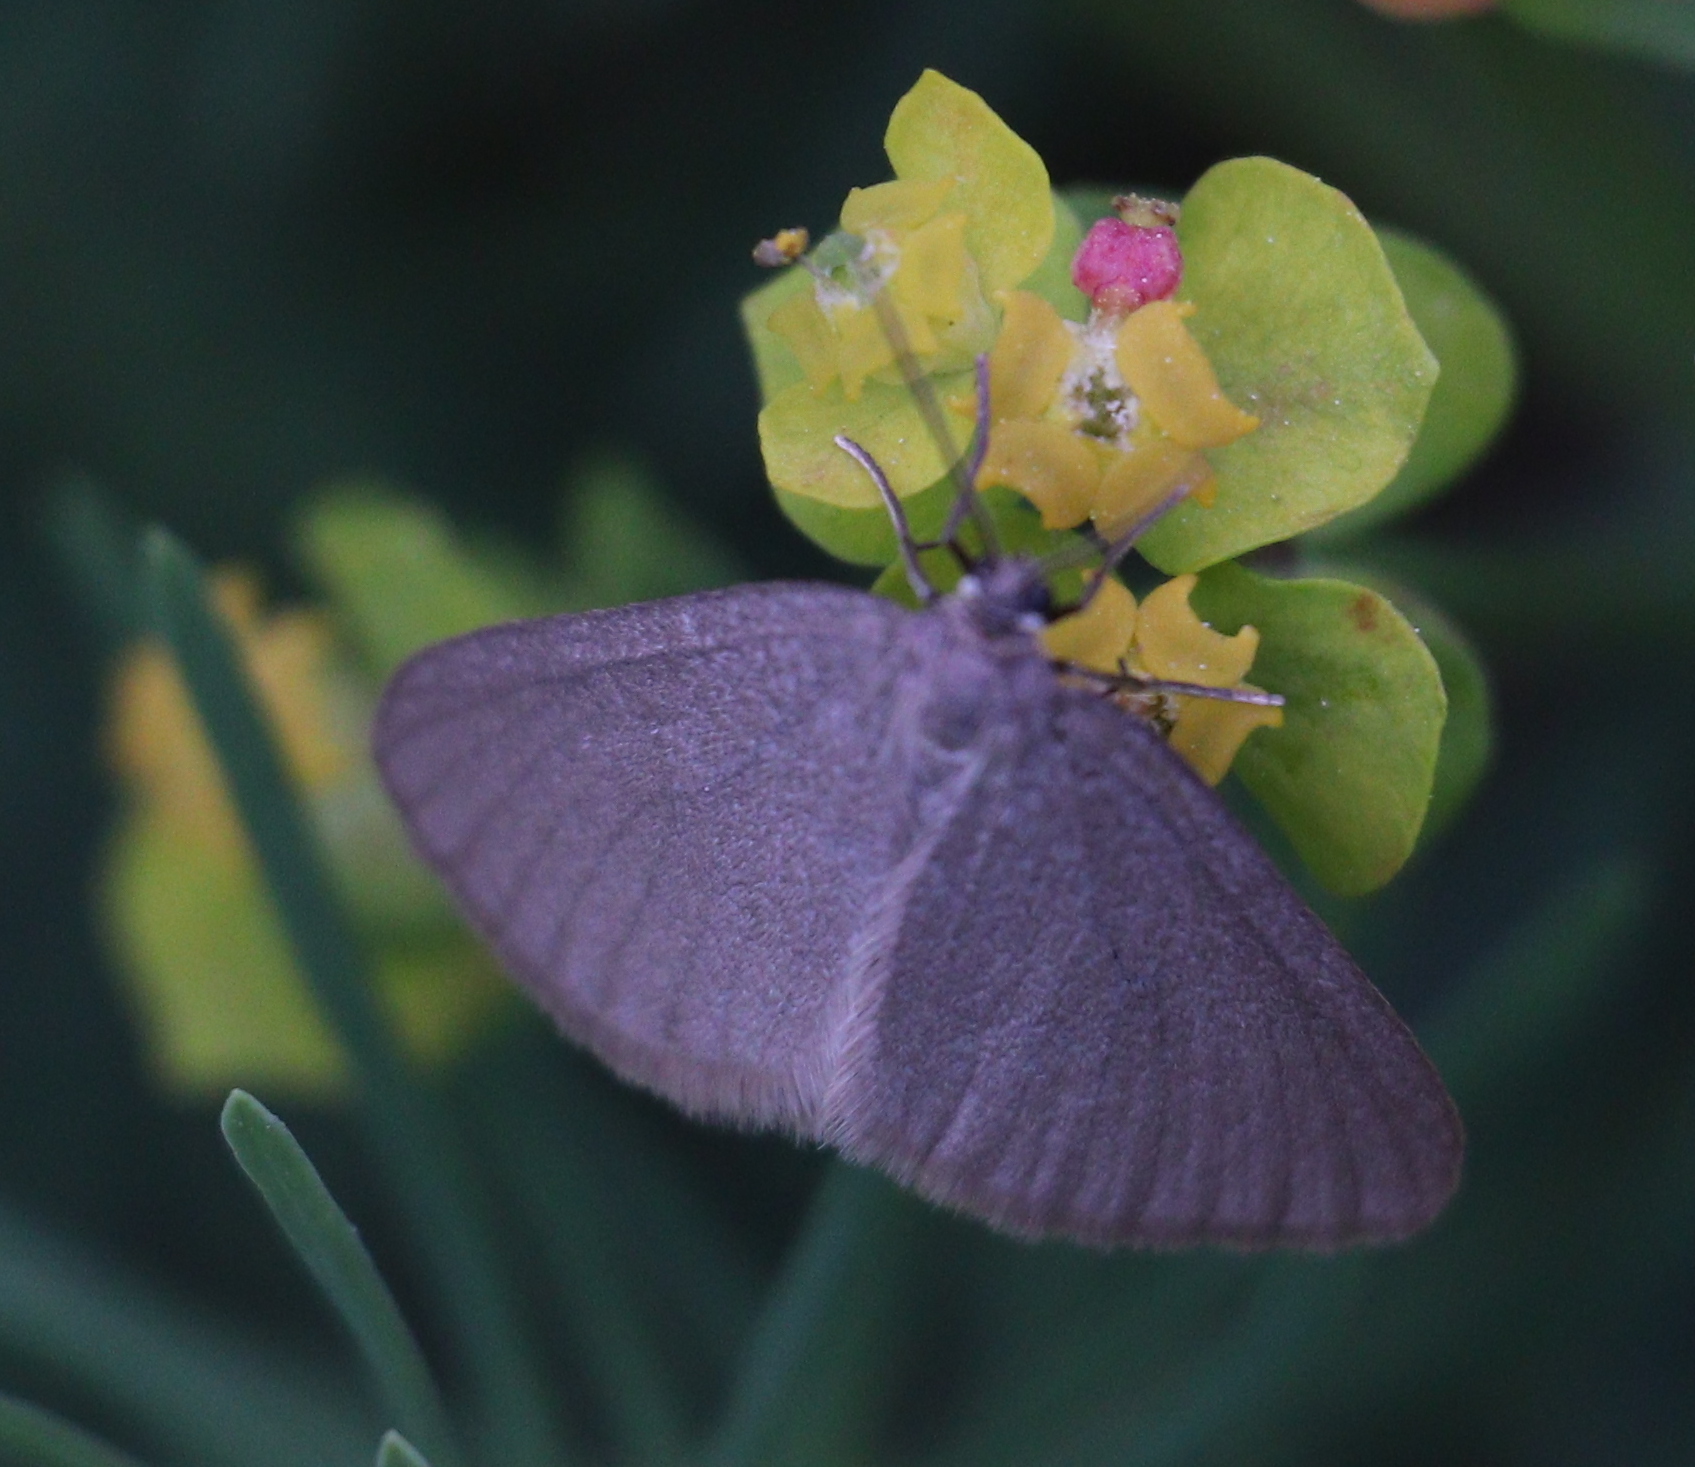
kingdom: Animalia
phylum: Arthropoda
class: Insecta
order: Lepidoptera
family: Geometridae
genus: Minoa
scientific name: Minoa murinata
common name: Drab looper
